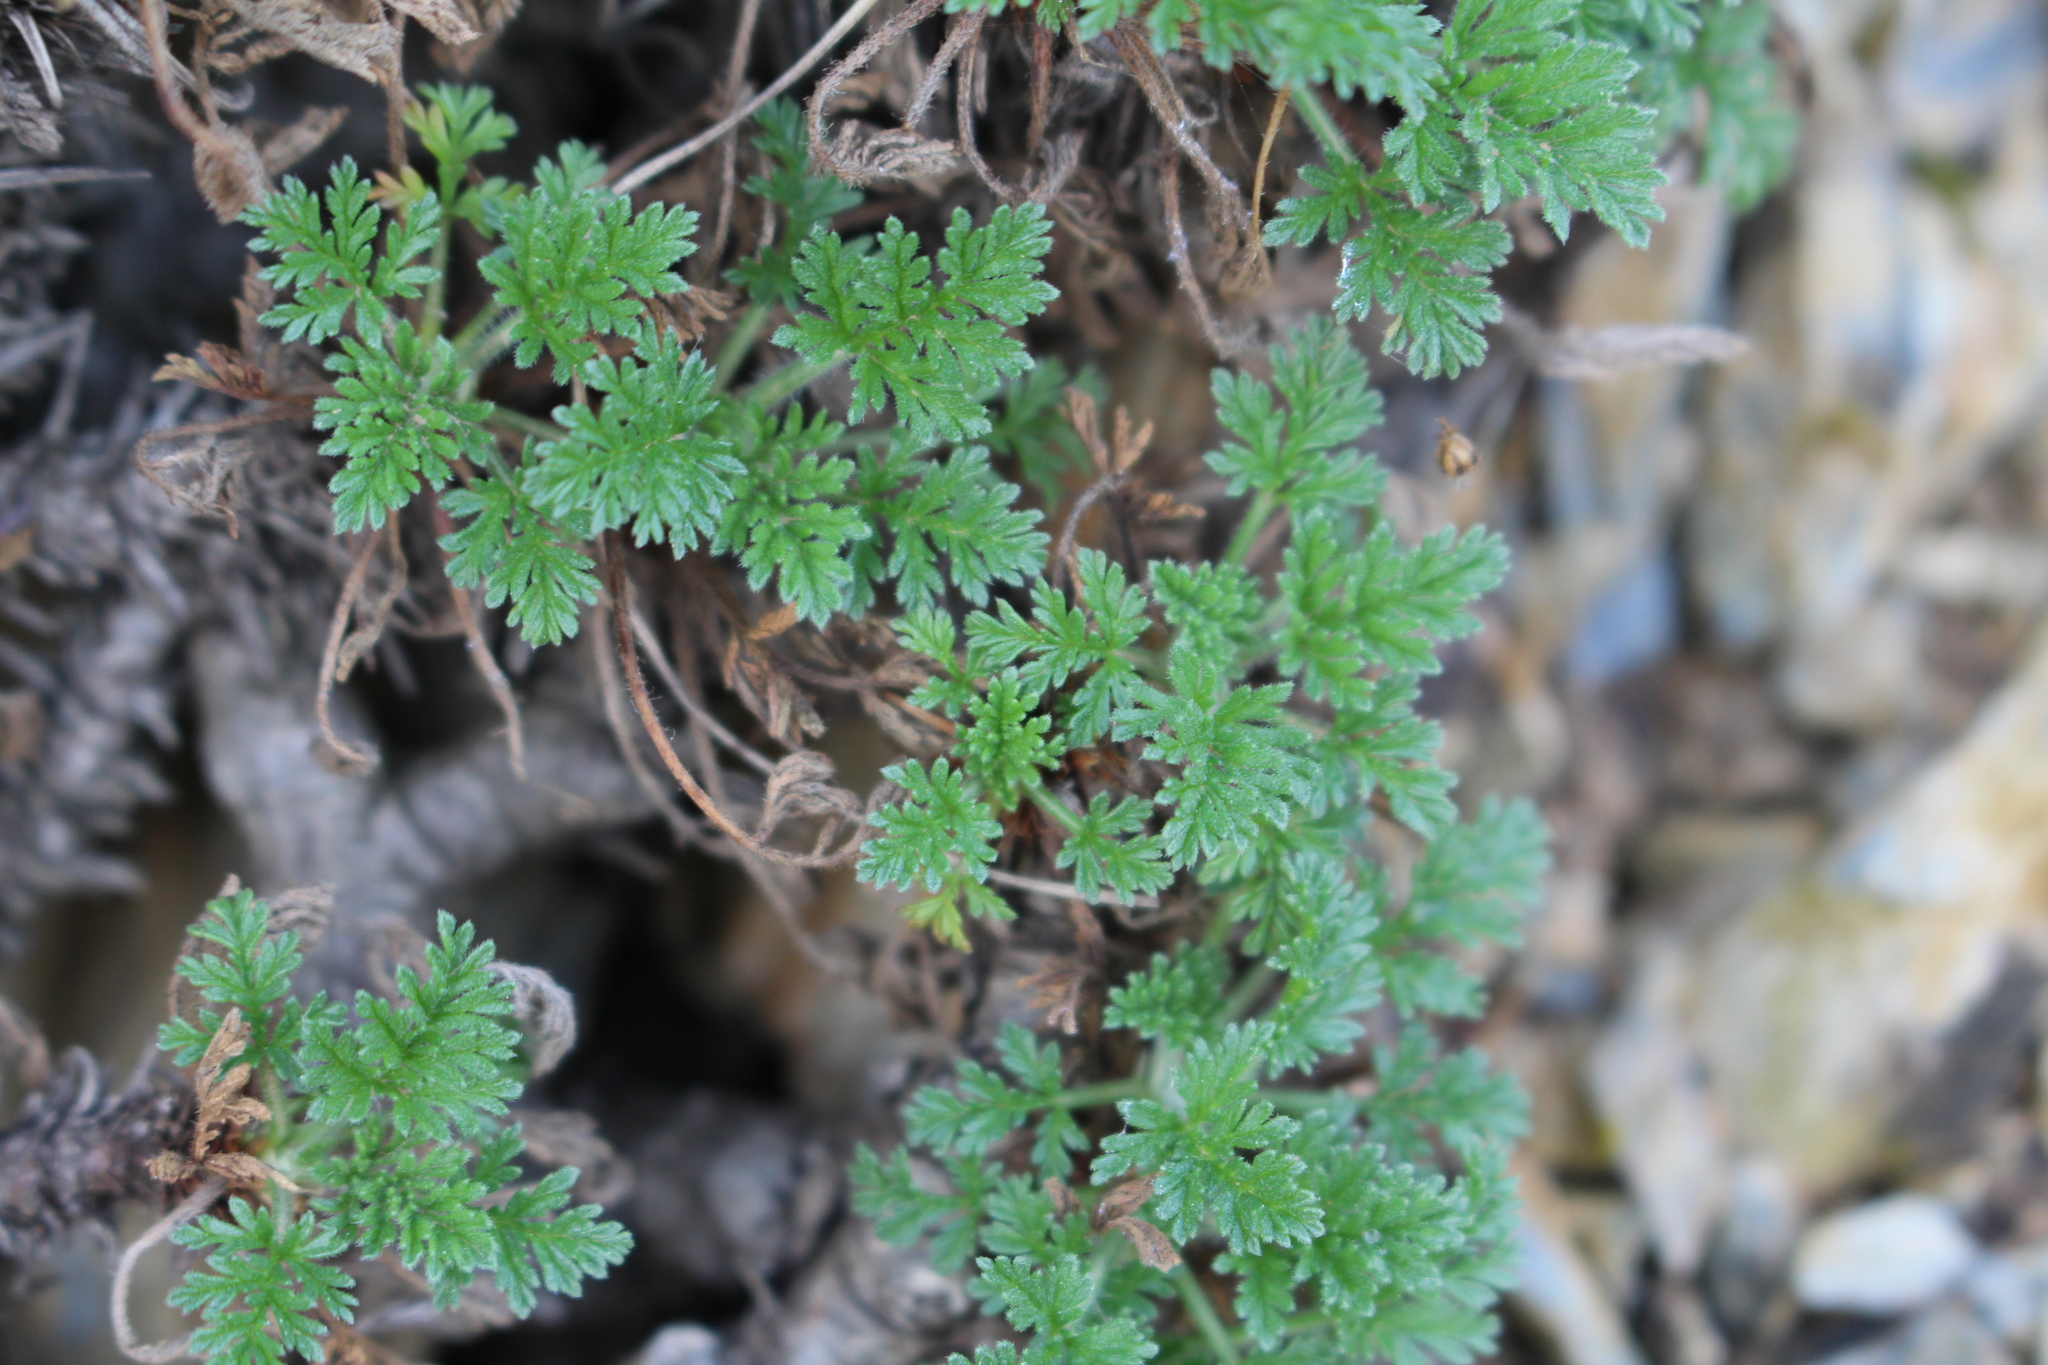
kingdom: Plantae
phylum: Tracheophyta
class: Magnoliopsida
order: Geraniales
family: Geraniaceae
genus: Erodium
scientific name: Erodium foetidum
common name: Rock stork's-bill
